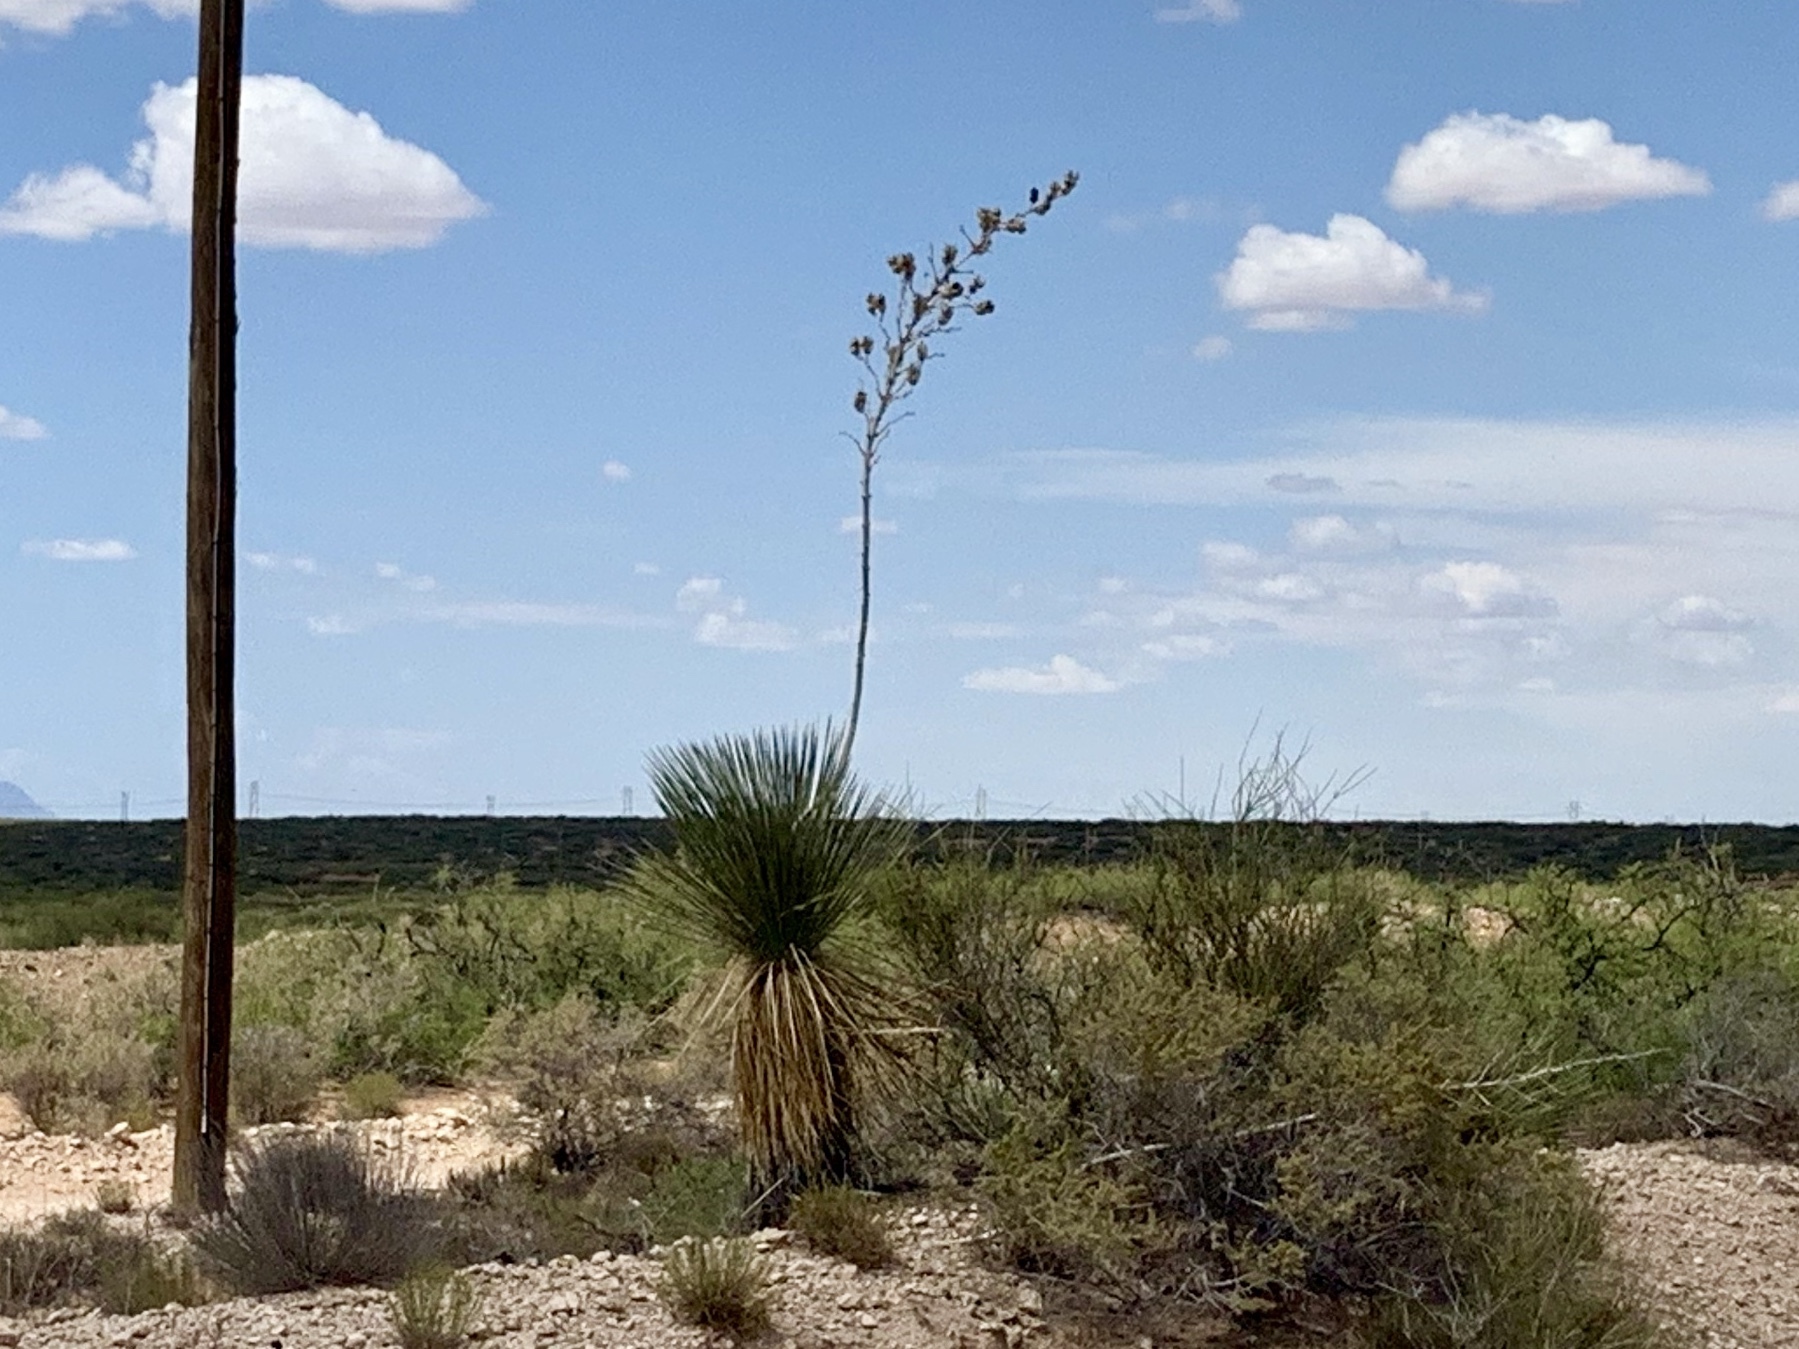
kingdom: Plantae
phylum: Tracheophyta
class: Liliopsida
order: Asparagales
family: Asparagaceae
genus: Yucca
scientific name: Yucca elata
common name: Palmella
